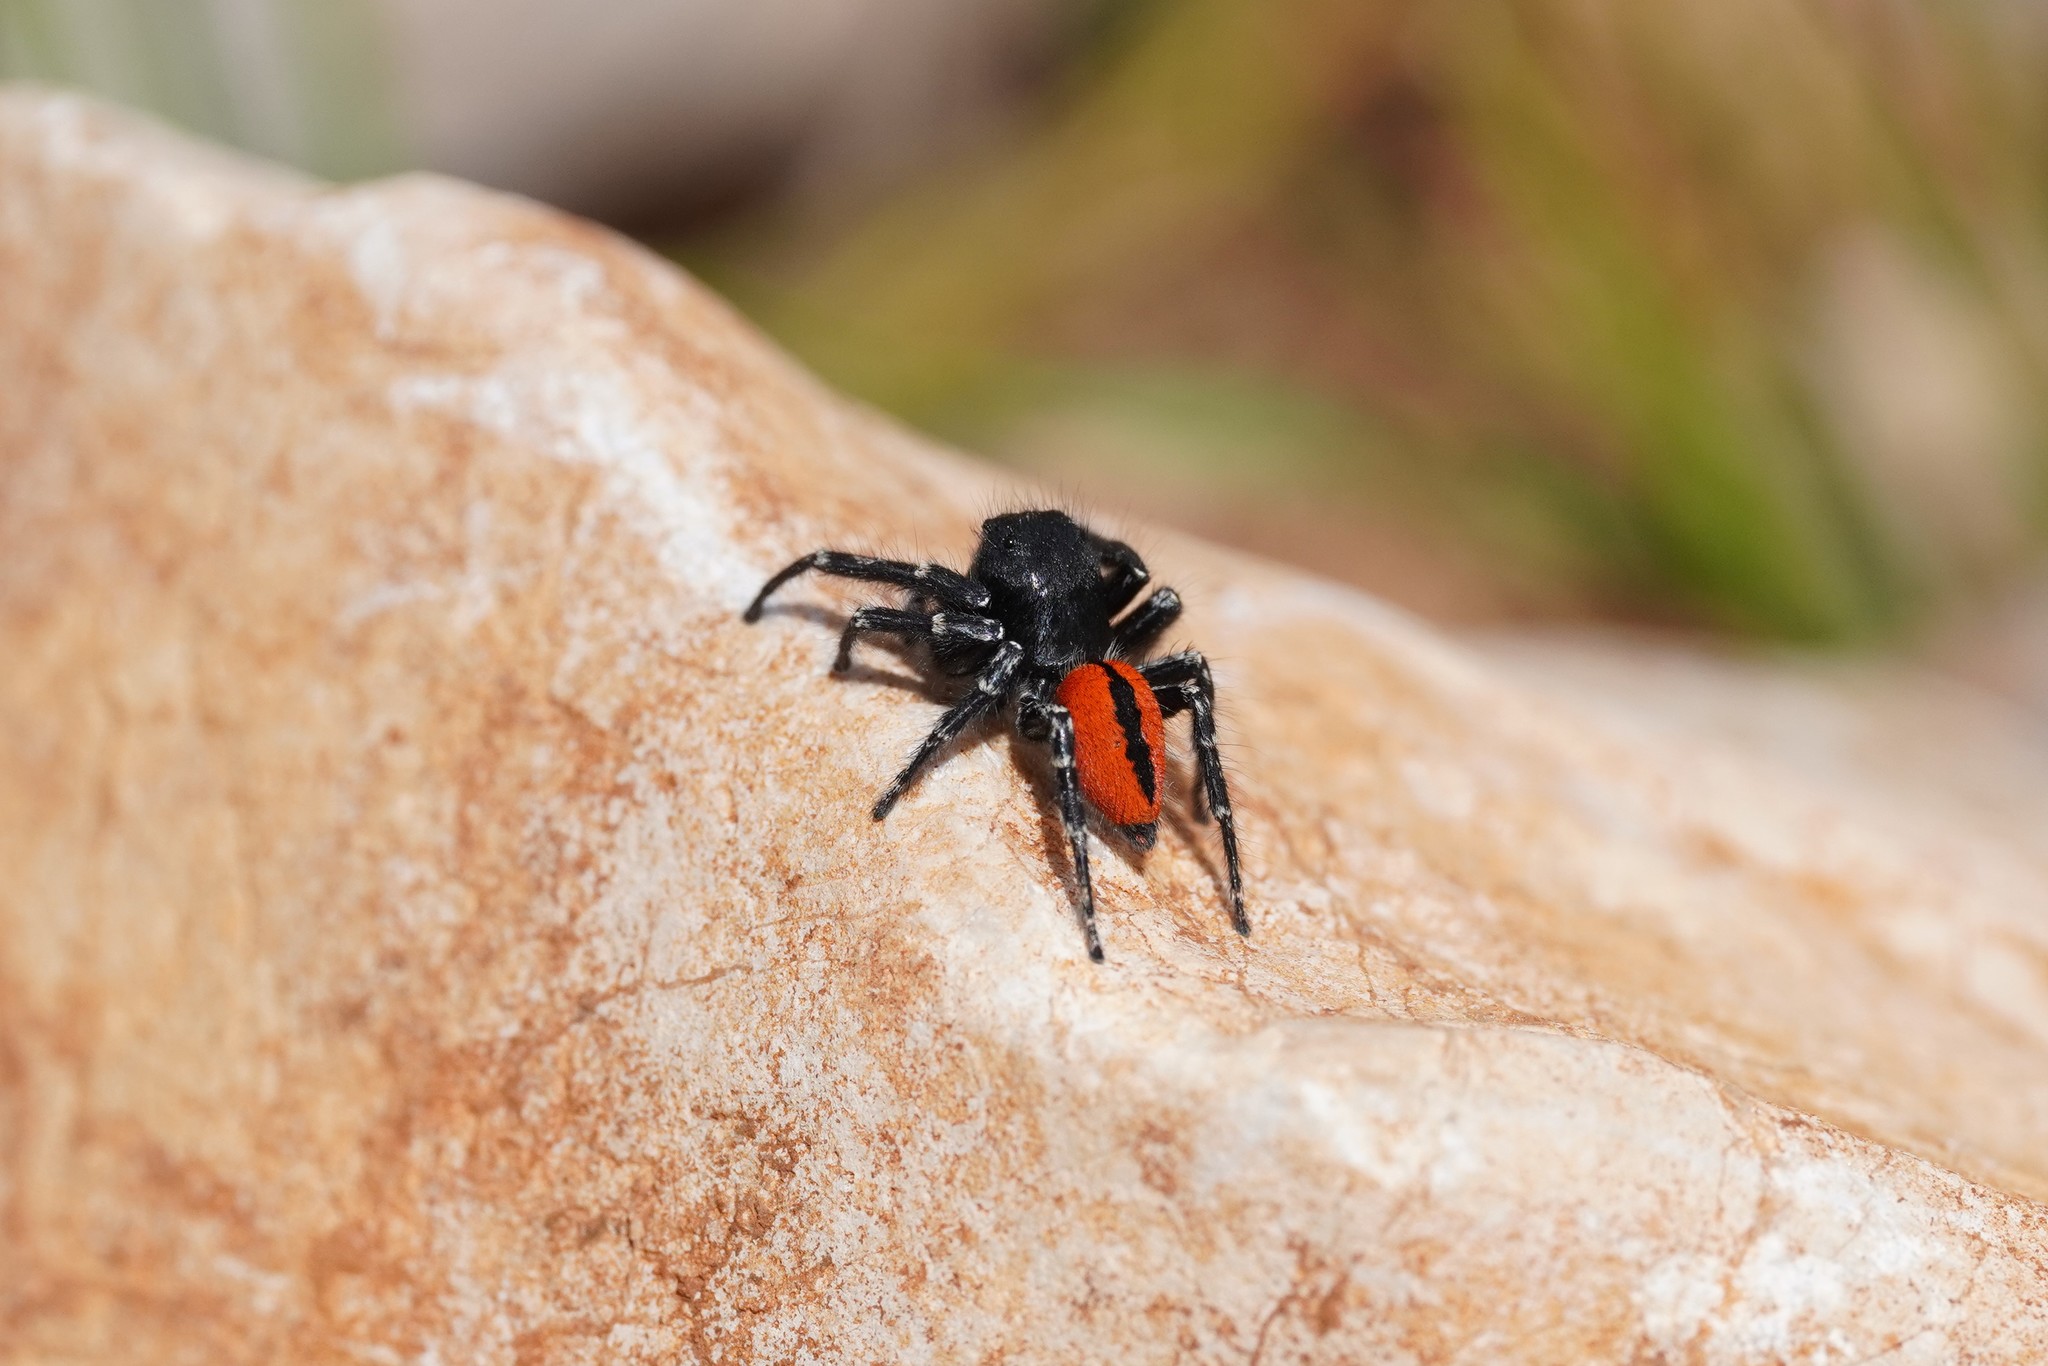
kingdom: Animalia
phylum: Arthropoda
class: Arachnida
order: Araneae
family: Salticidae
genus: Philaeus
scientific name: Philaeus chrysops
